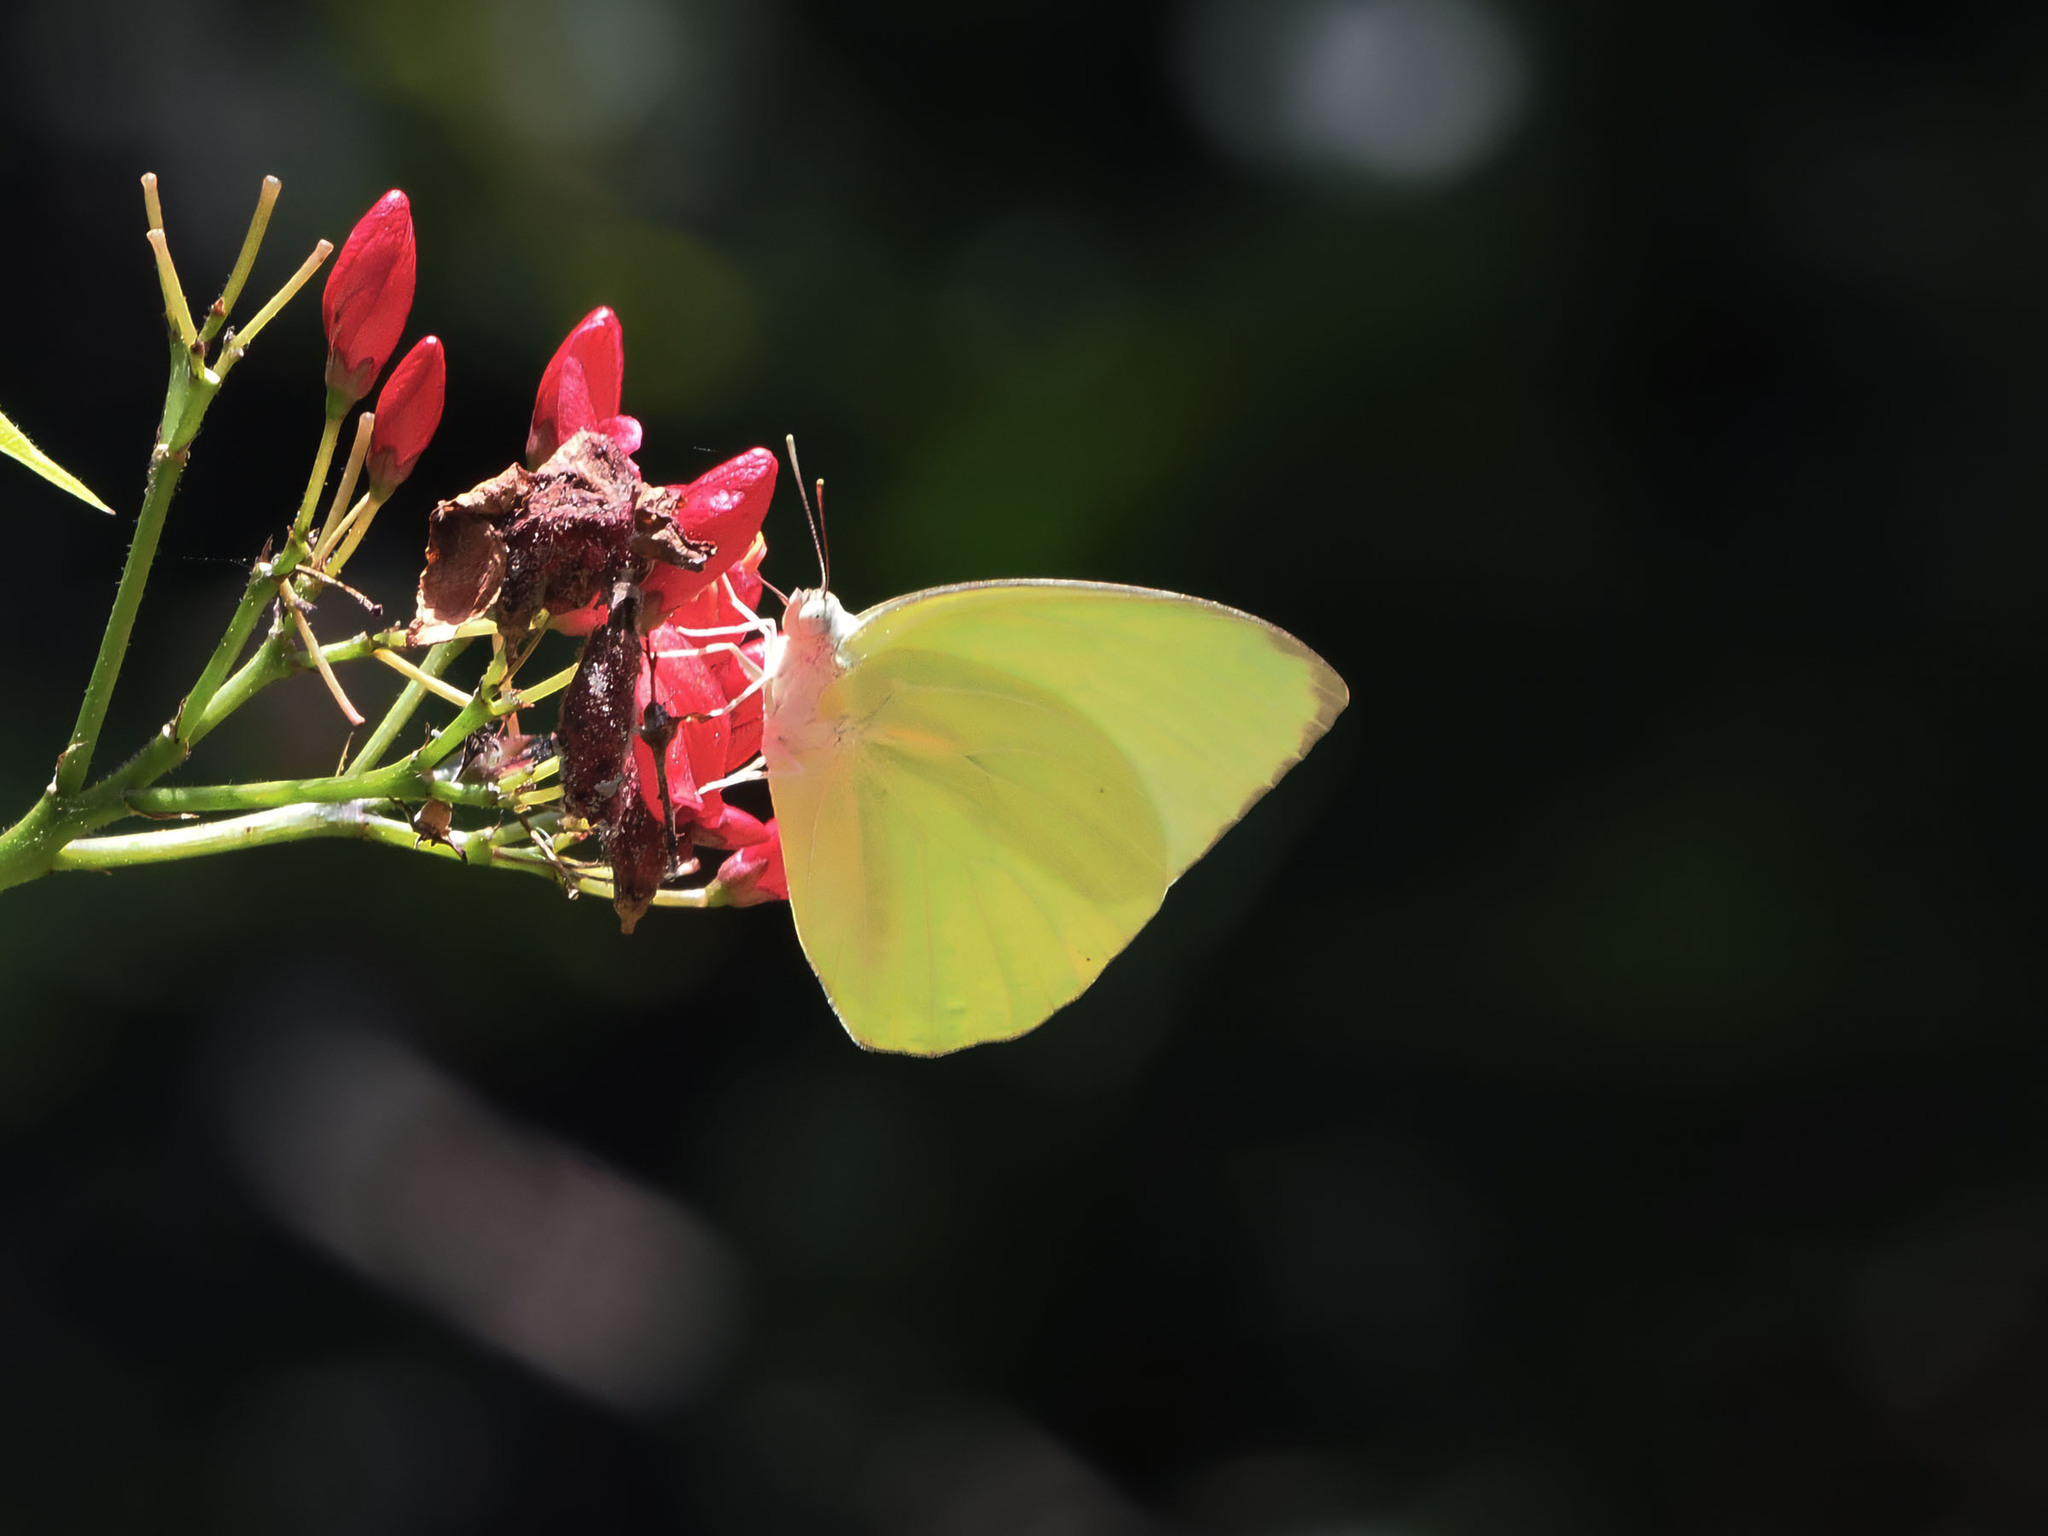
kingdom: Animalia
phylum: Arthropoda
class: Insecta
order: Lepidoptera
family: Pieridae
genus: Catopsilia
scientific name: Catopsilia pomona
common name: Common emigrant
